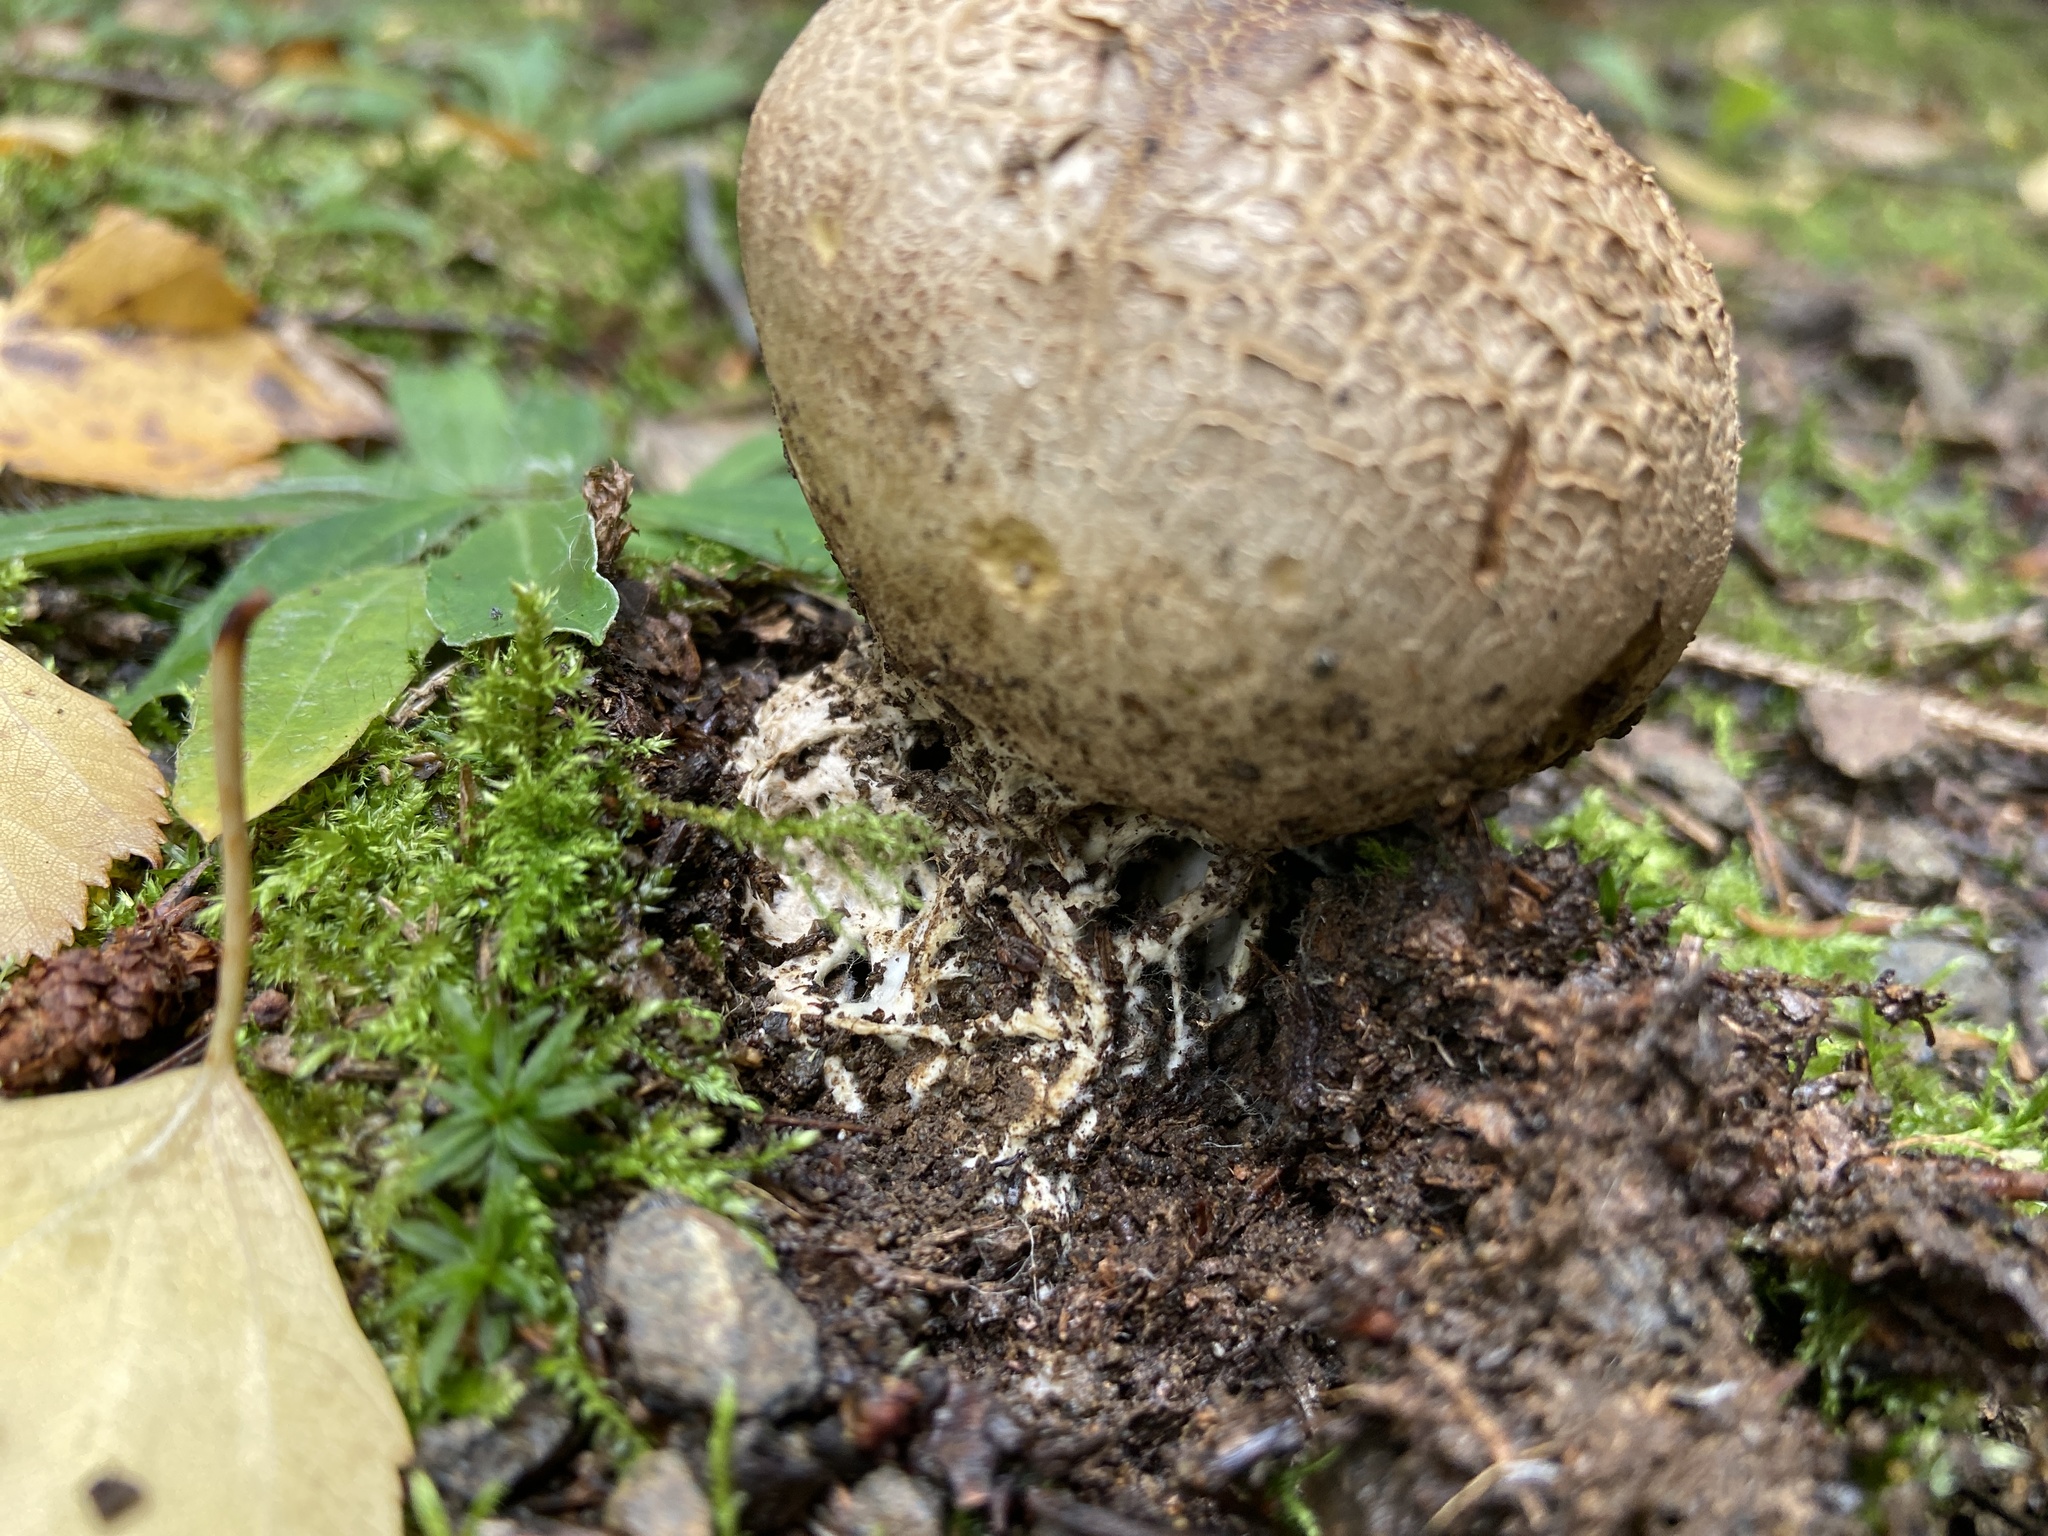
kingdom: Fungi
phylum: Basidiomycota
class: Agaricomycetes
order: Boletales
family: Sclerodermataceae
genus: Scleroderma
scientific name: Scleroderma verrucosum
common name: Scaly earthball
